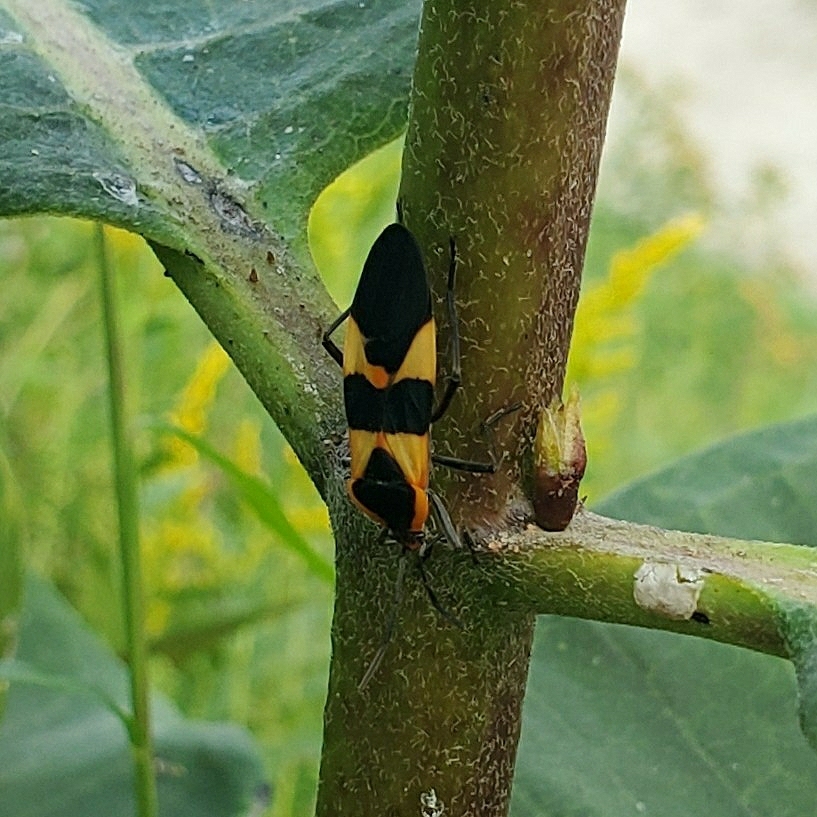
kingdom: Animalia
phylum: Arthropoda
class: Insecta
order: Hemiptera
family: Lygaeidae
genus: Oncopeltus
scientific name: Oncopeltus fasciatus
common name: Large milkweed bug
